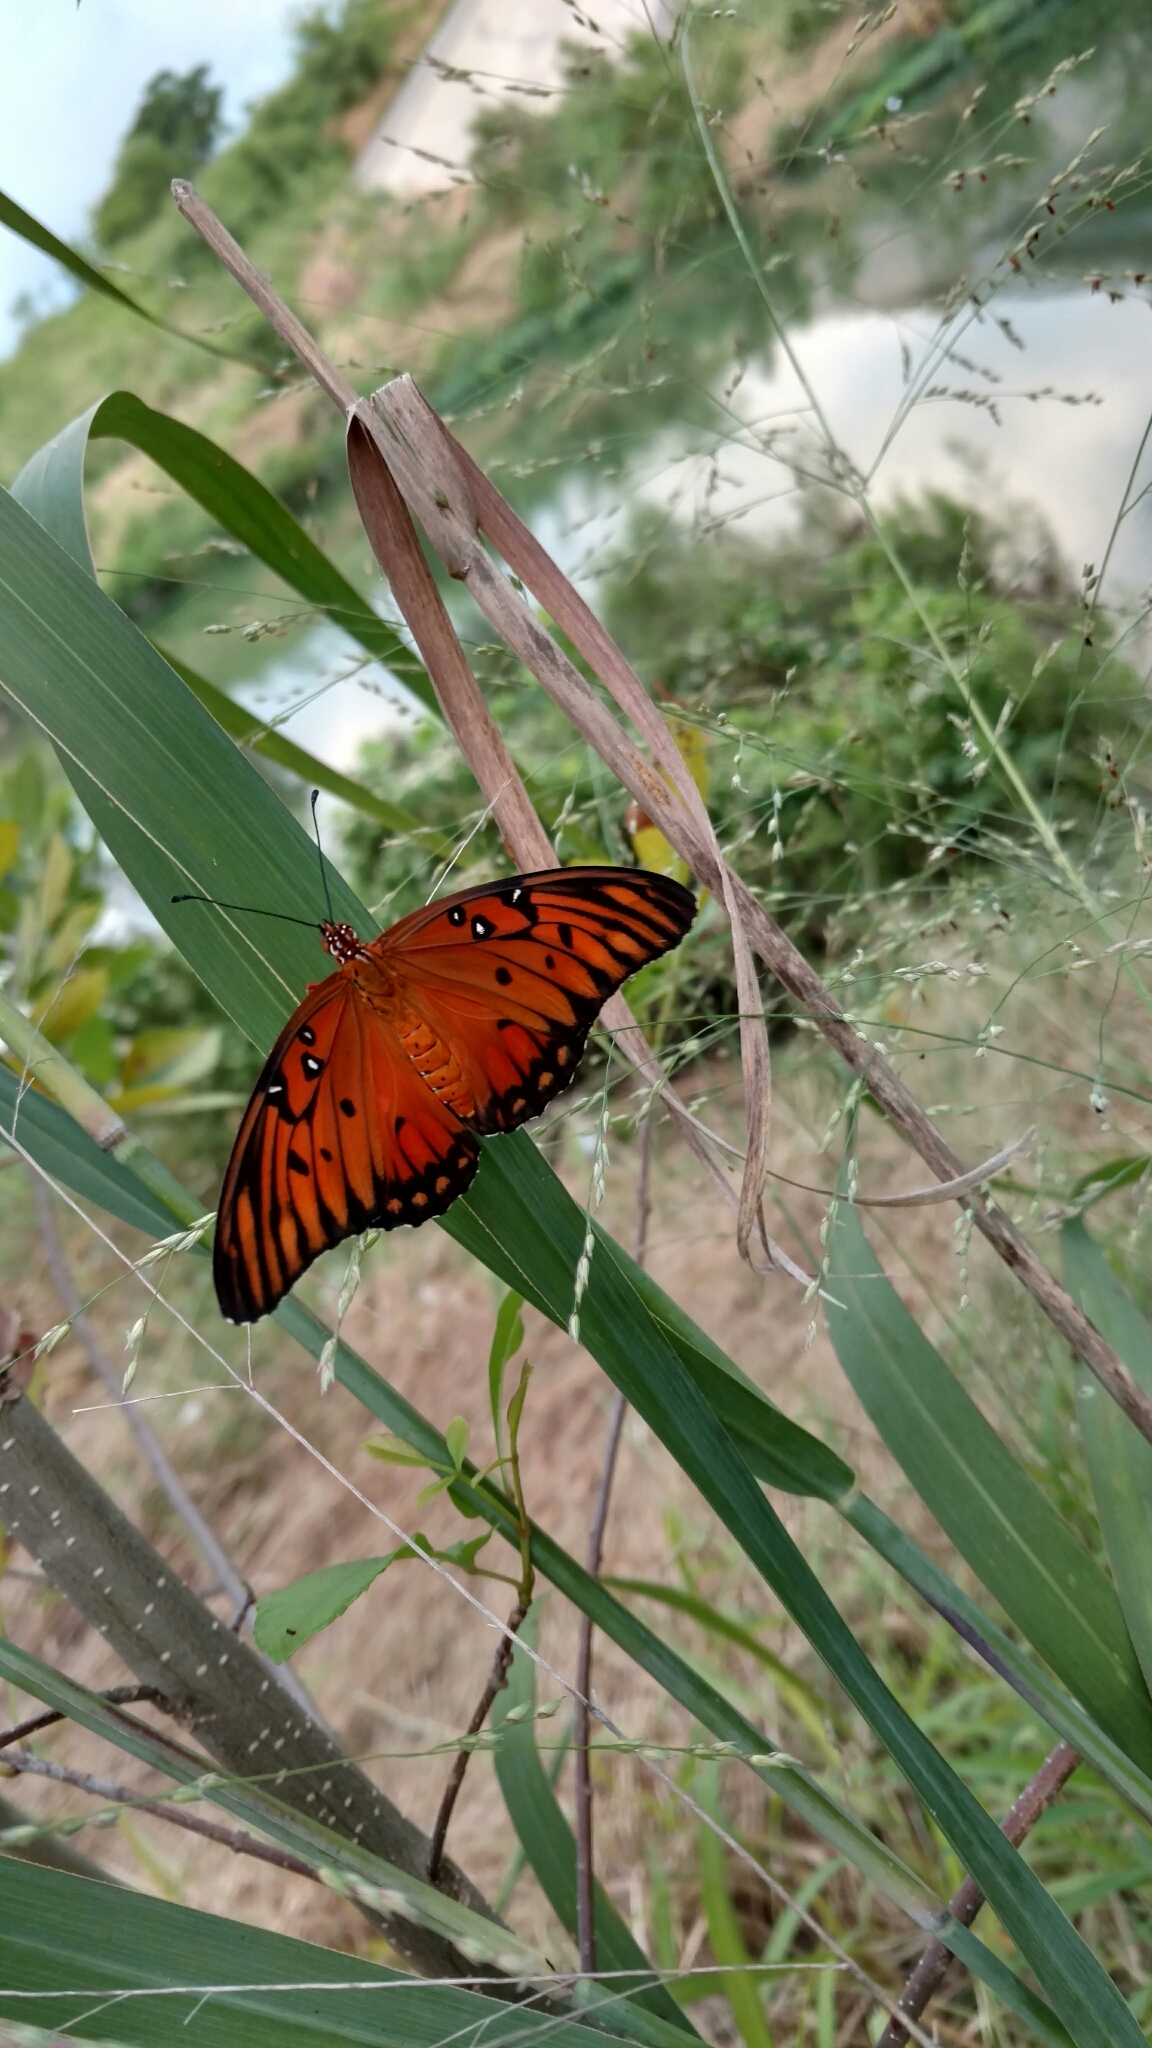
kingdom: Animalia
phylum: Arthropoda
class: Insecta
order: Lepidoptera
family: Nymphalidae
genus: Dione
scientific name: Dione vanillae
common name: Gulf fritillary
